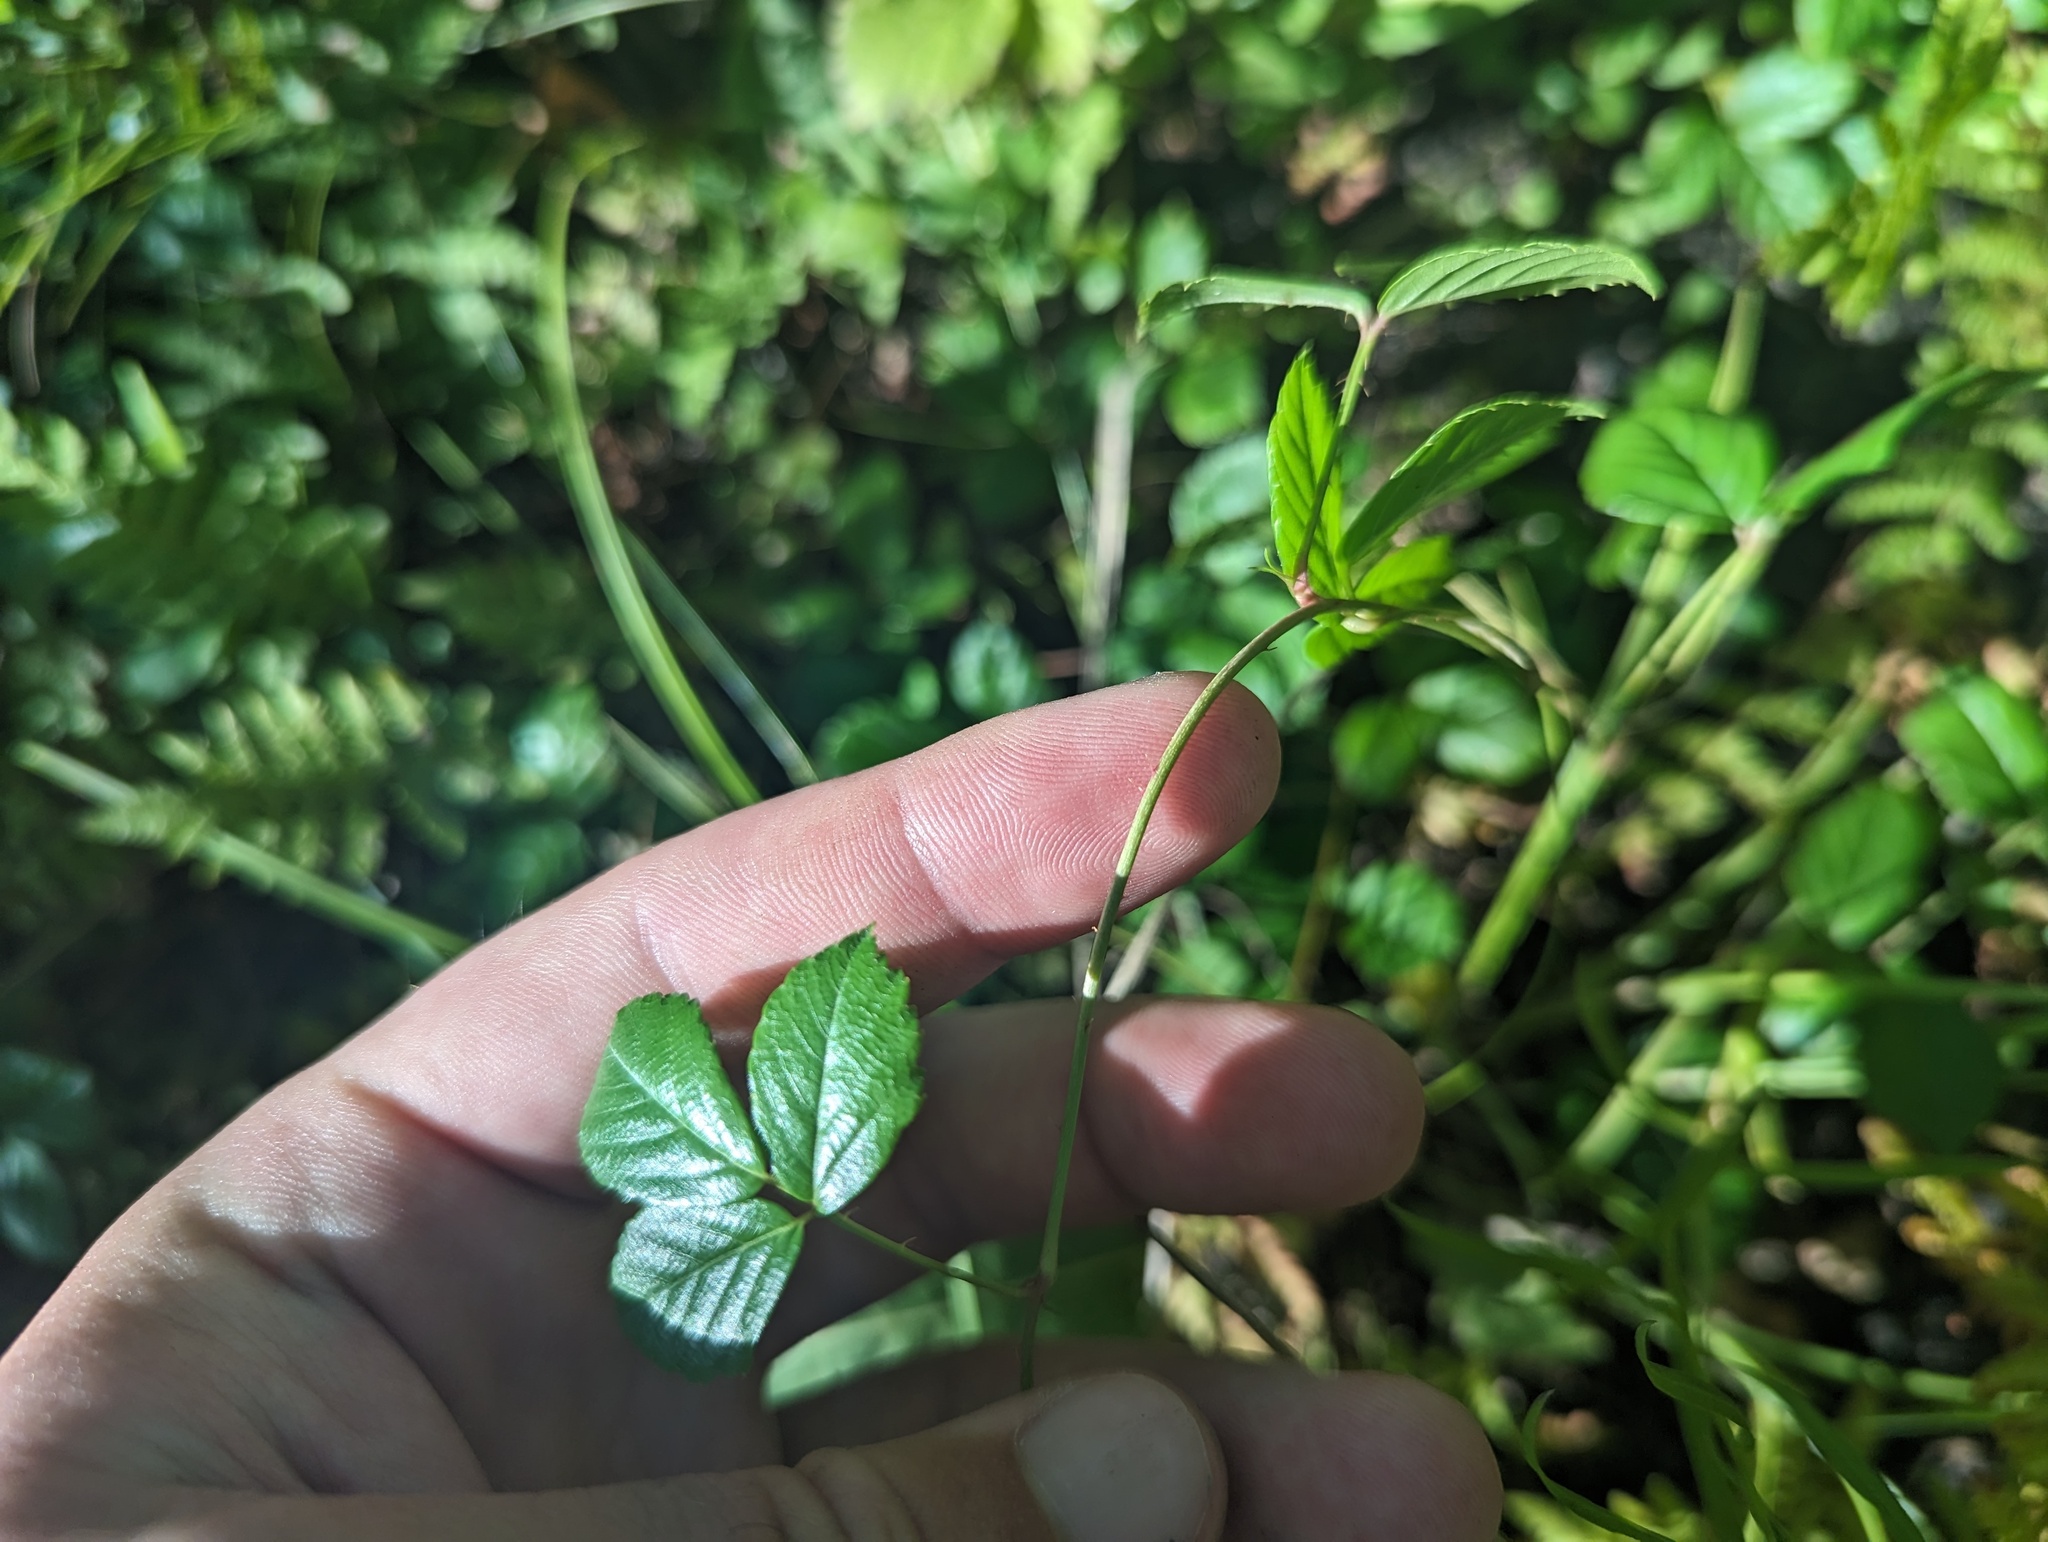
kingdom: Plantae
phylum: Tracheophyta
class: Magnoliopsida
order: Rosales
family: Rosaceae
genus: Rubus
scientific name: Rubus hispidus
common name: Running blackberry
